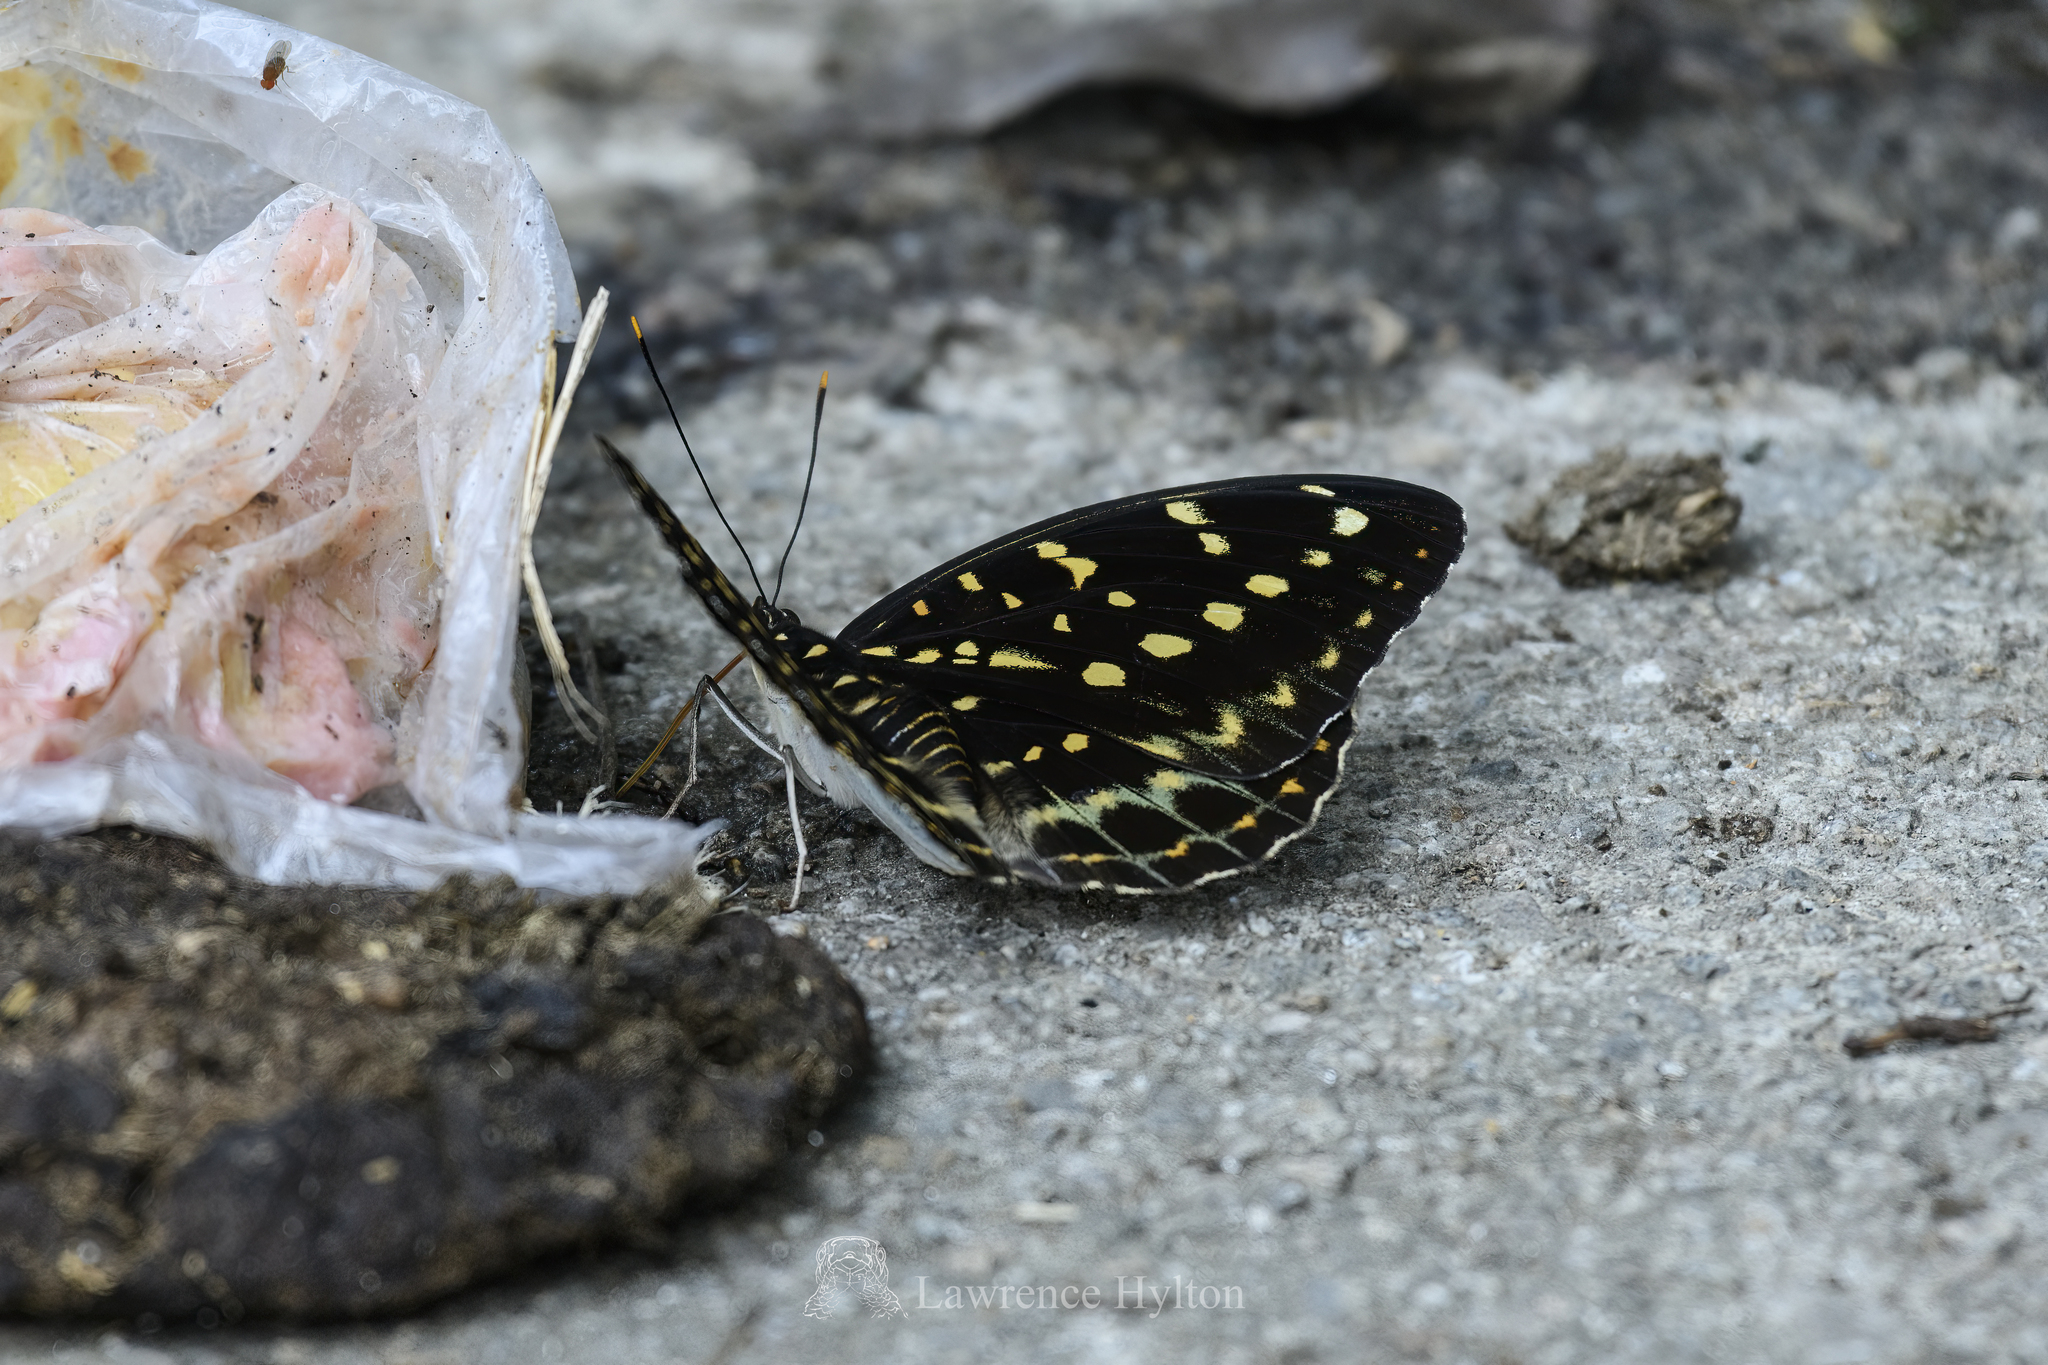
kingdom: Animalia
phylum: Arthropoda
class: Insecta
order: Lepidoptera
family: Nymphalidae
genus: Lexias
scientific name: Lexias pardalis
